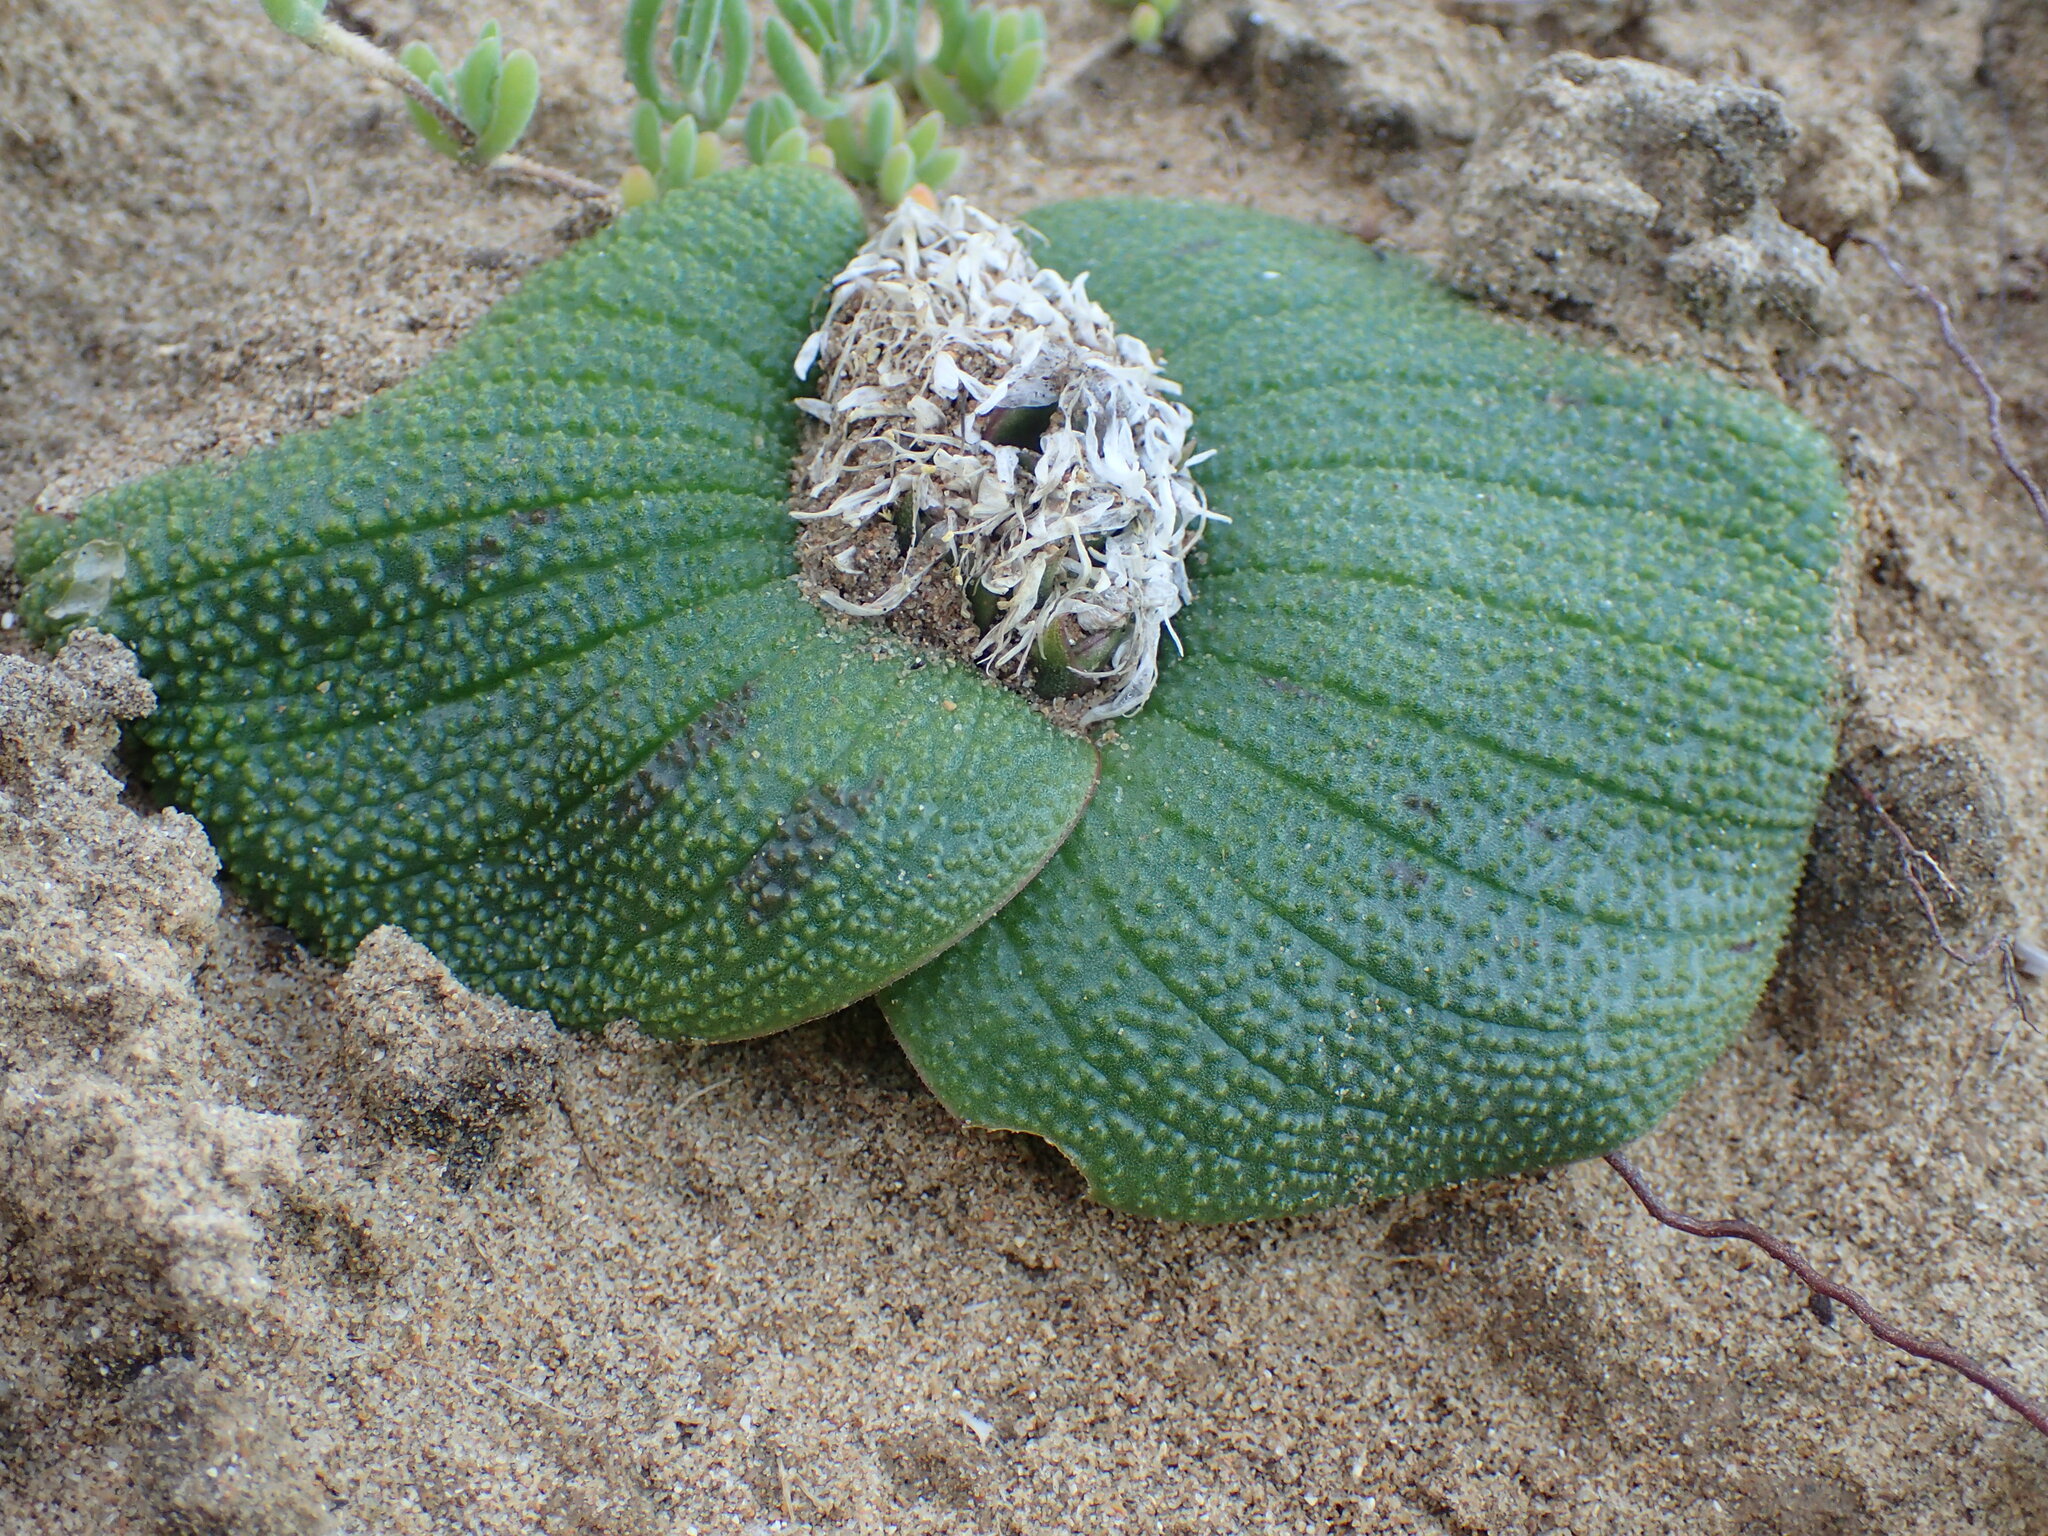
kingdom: Plantae
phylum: Tracheophyta
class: Liliopsida
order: Asparagales
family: Asparagaceae
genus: Massonia
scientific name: Massonia longipes
